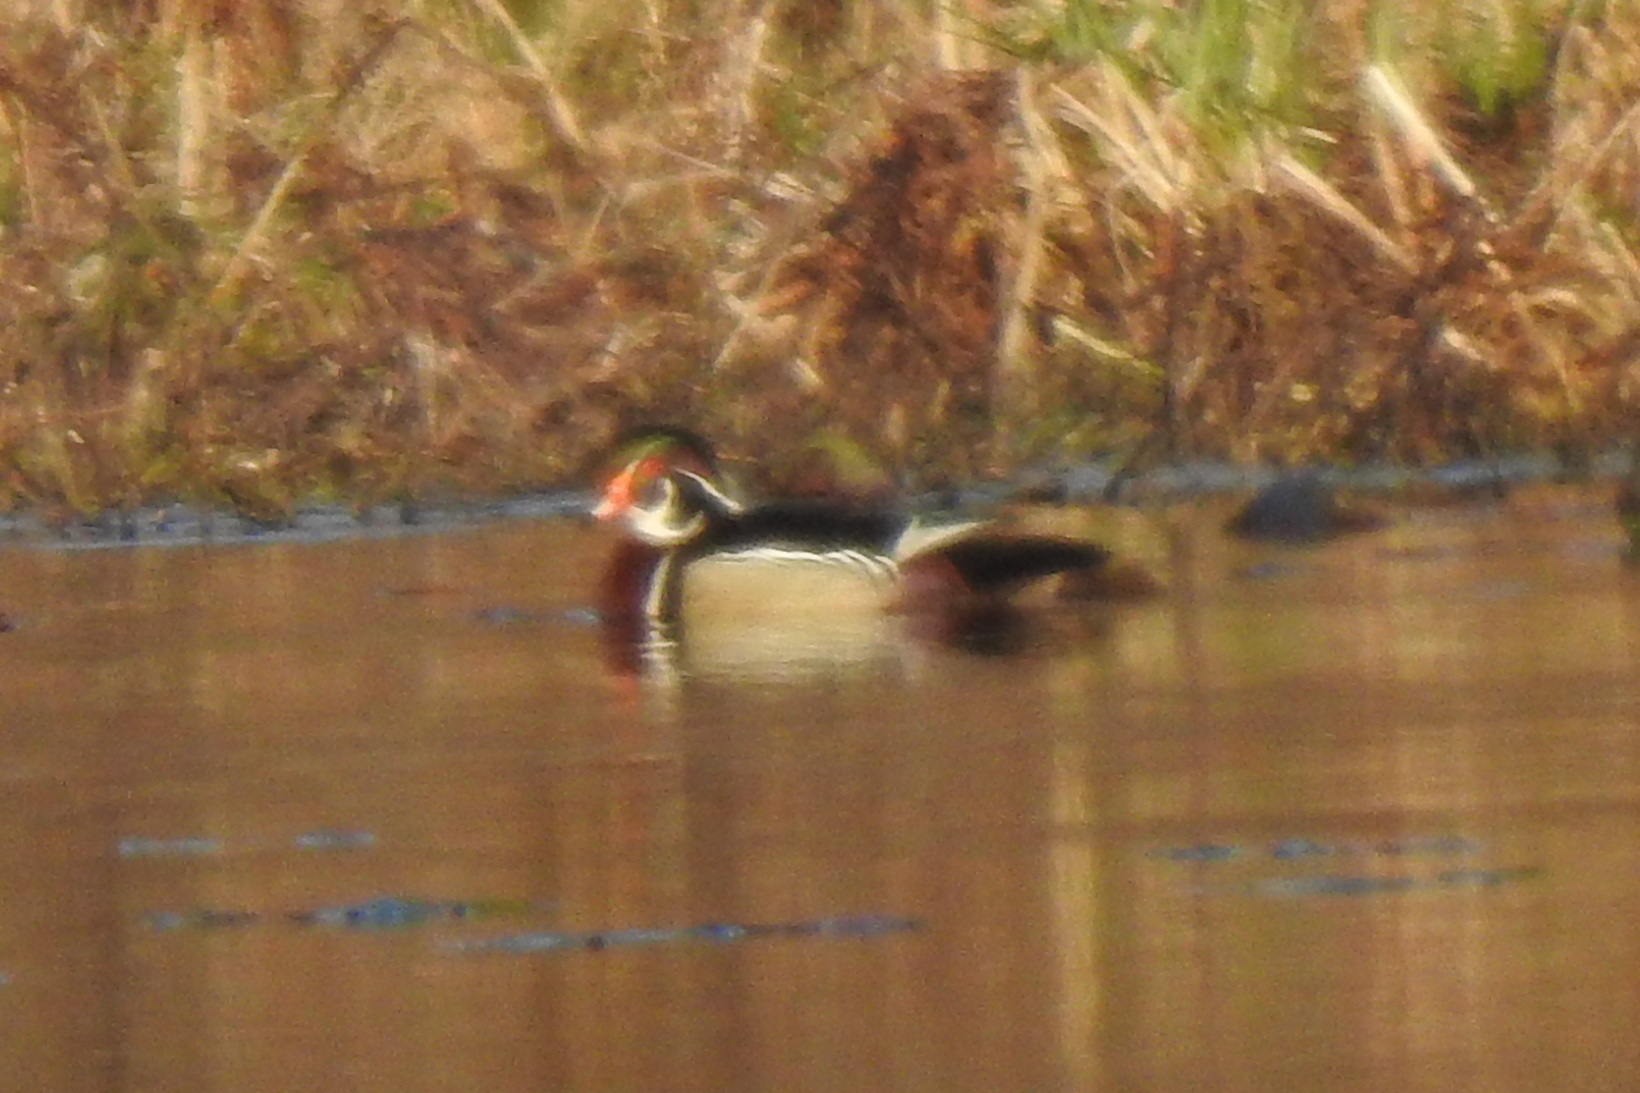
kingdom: Animalia
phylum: Chordata
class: Aves
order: Anseriformes
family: Anatidae
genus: Aix
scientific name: Aix sponsa
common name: Wood duck
